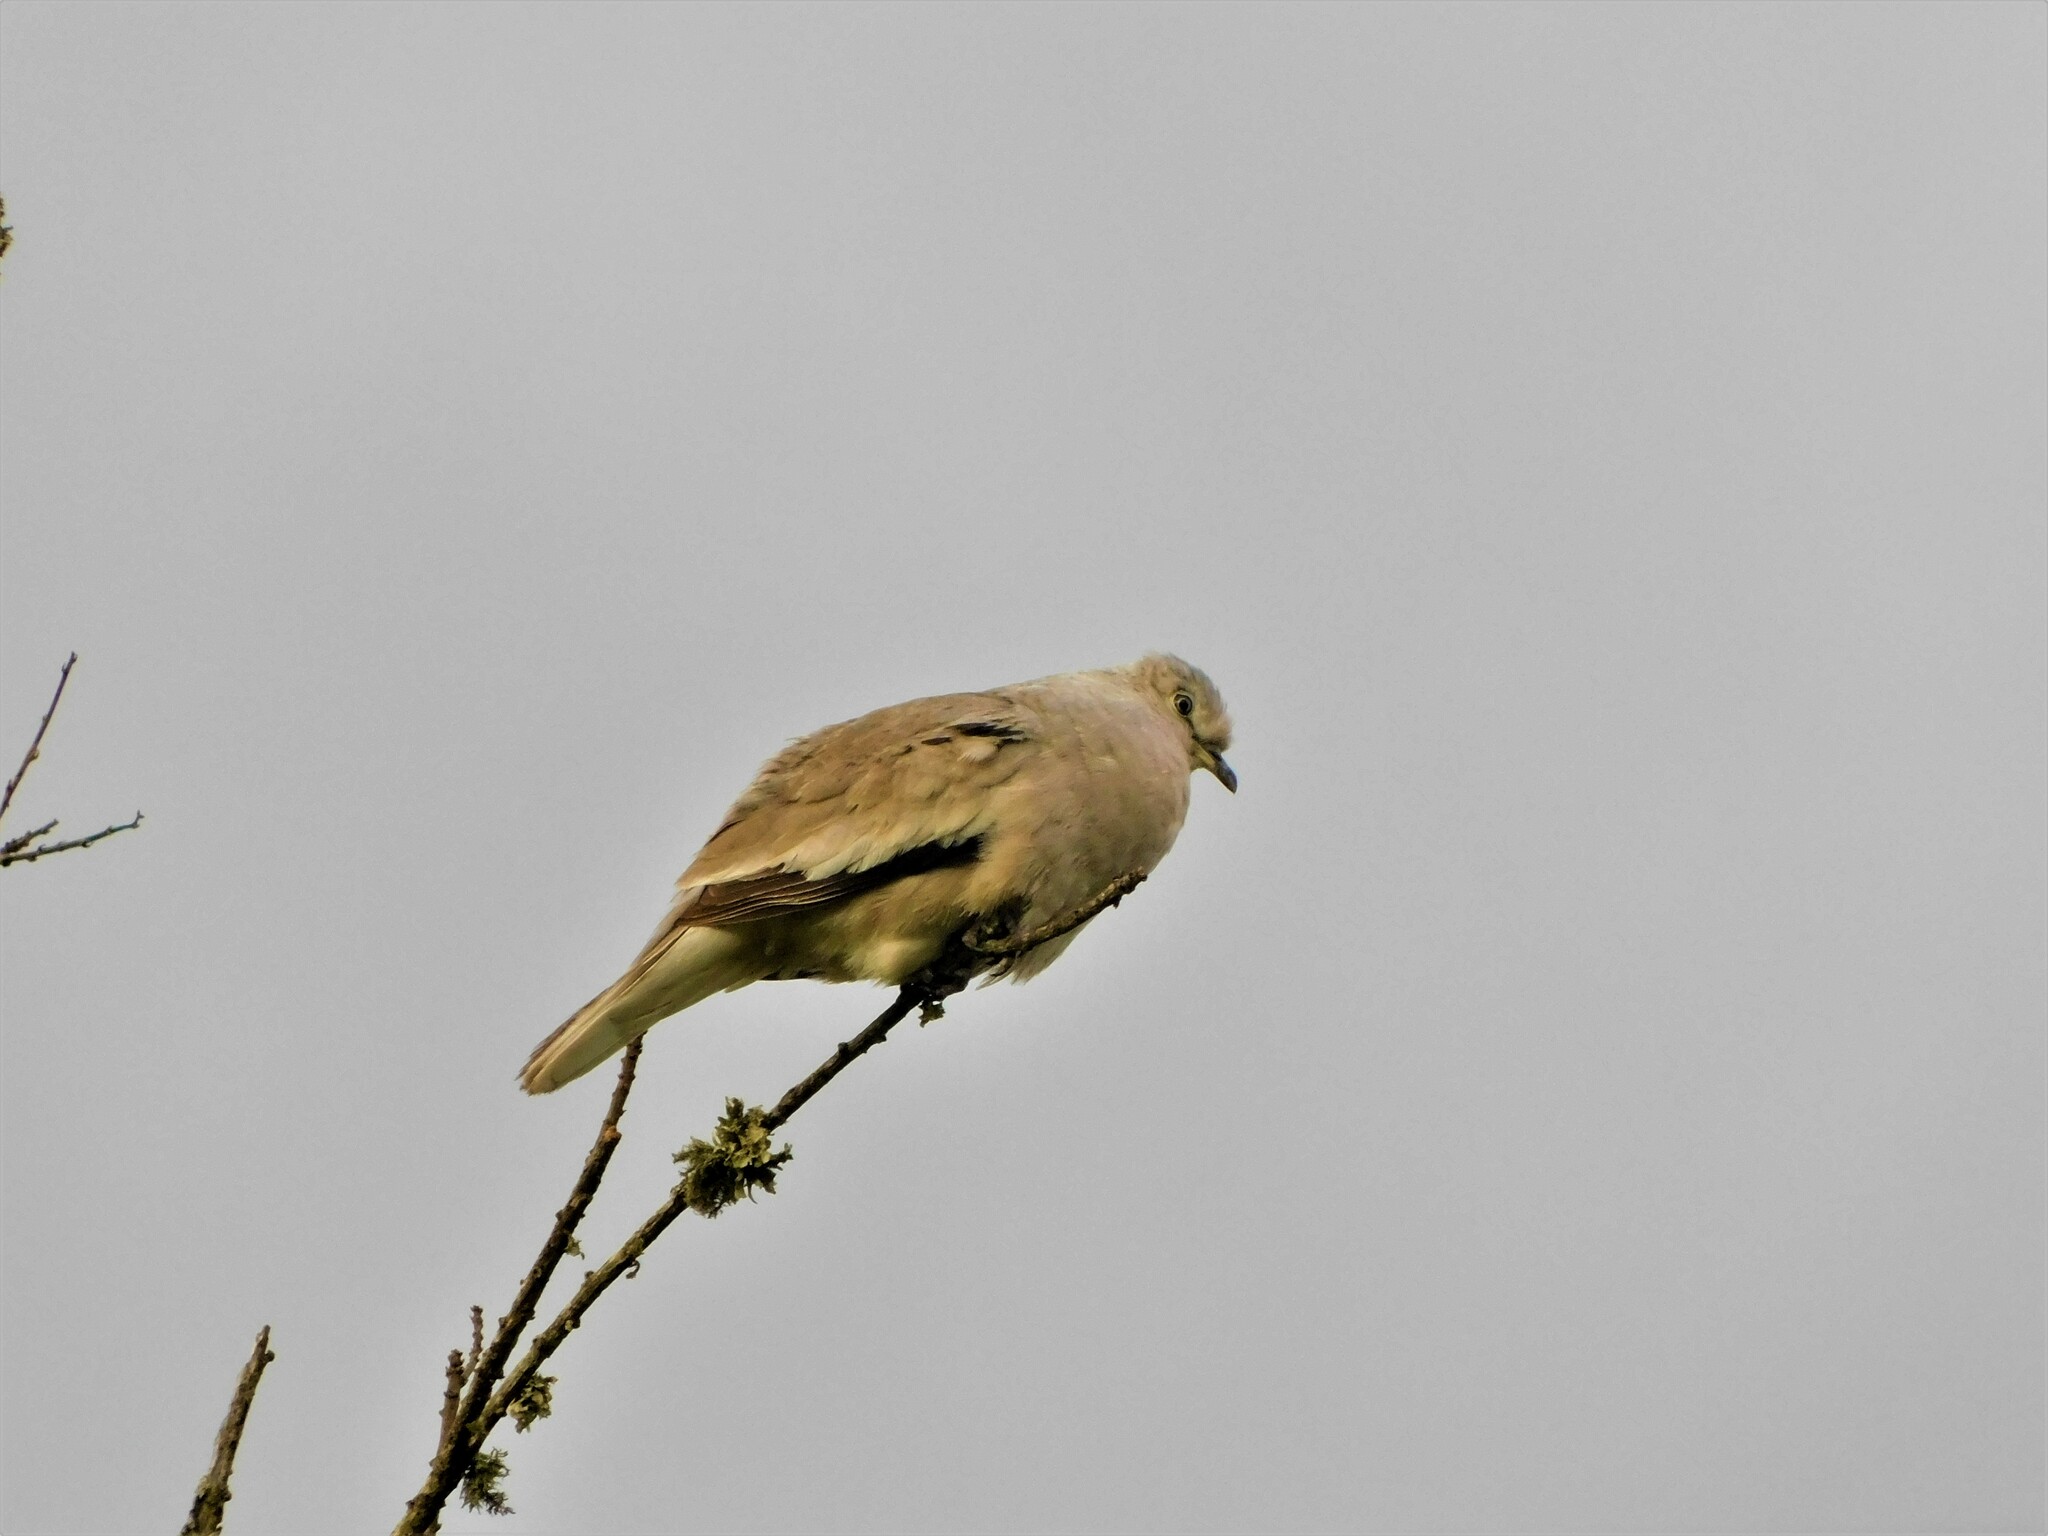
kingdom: Animalia
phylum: Chordata
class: Aves
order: Columbiformes
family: Columbidae
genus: Columbina
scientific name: Columbina picui
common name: Picui ground dove
